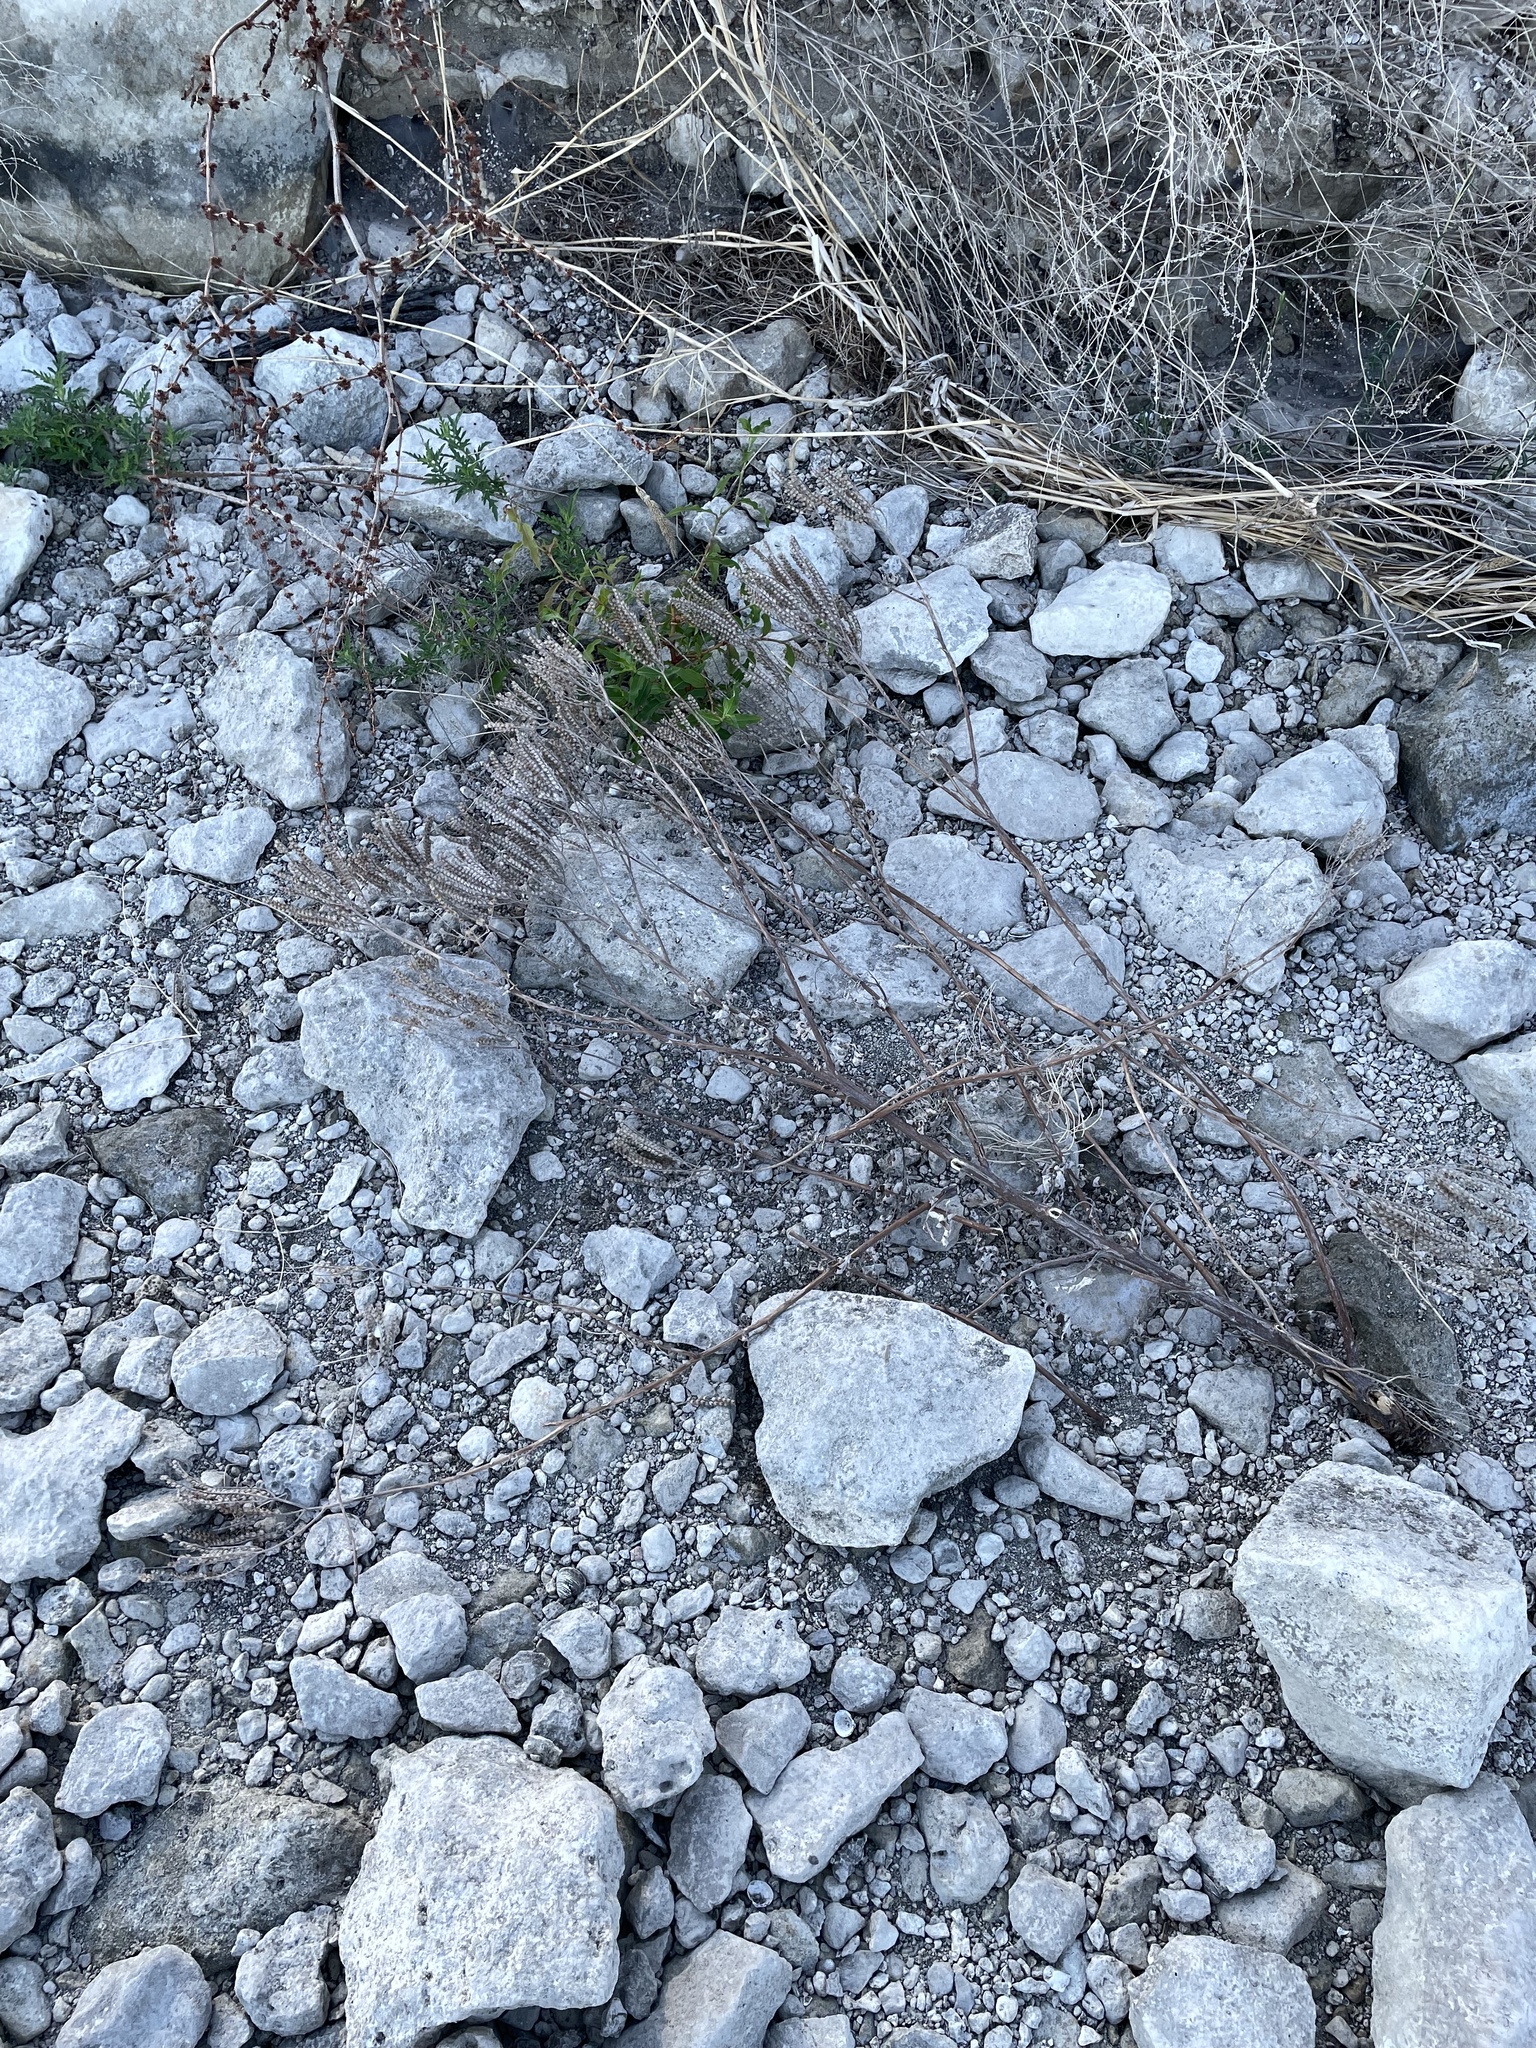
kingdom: Plantae
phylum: Tracheophyta
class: Magnoliopsida
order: Boraginales
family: Hydrophyllaceae
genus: Phacelia
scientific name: Phacelia congesta
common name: Blue curls
